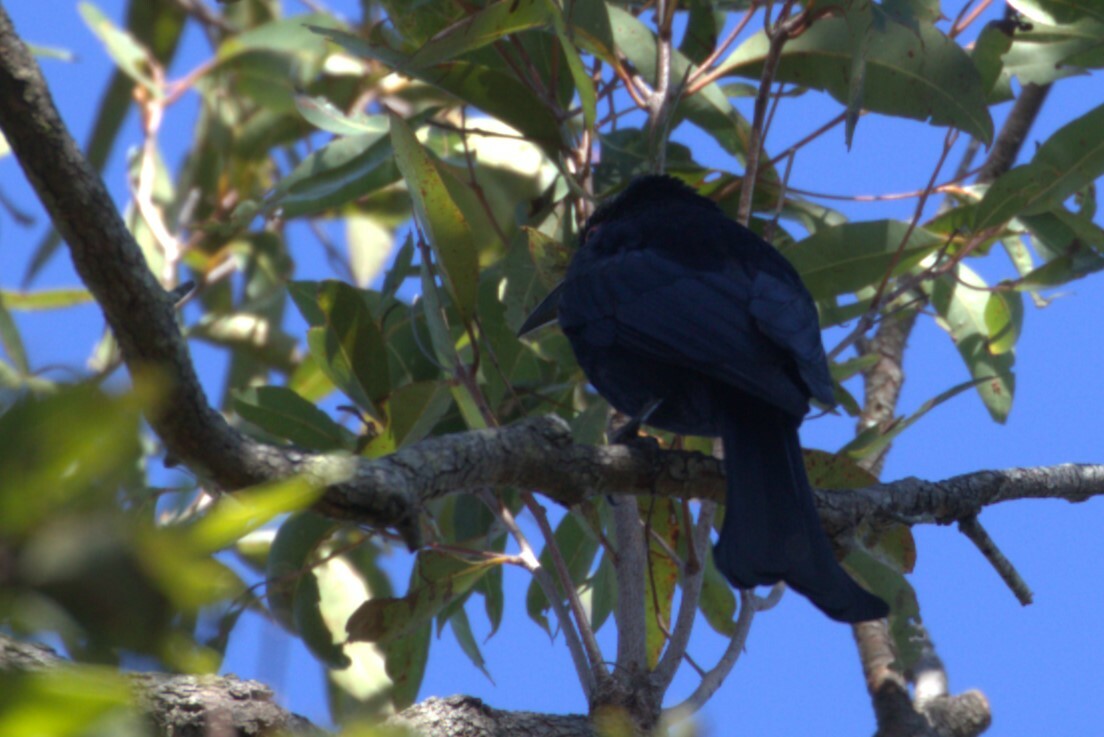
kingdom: Animalia
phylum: Chordata
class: Aves
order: Passeriformes
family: Dicruridae
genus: Dicrurus
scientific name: Dicrurus bracteatus
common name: Spangled drongo
